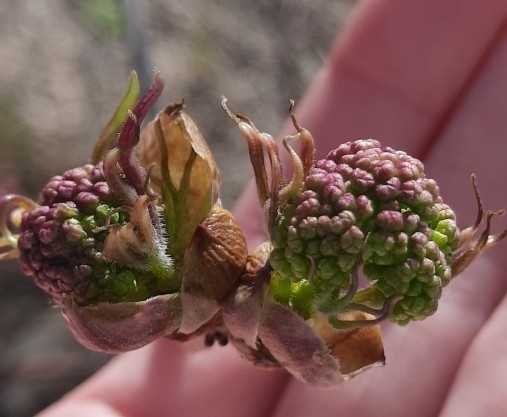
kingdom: Plantae
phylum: Tracheophyta
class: Magnoliopsida
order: Dipsacales
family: Viburnaceae
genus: Sambucus
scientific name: Sambucus sibirica
